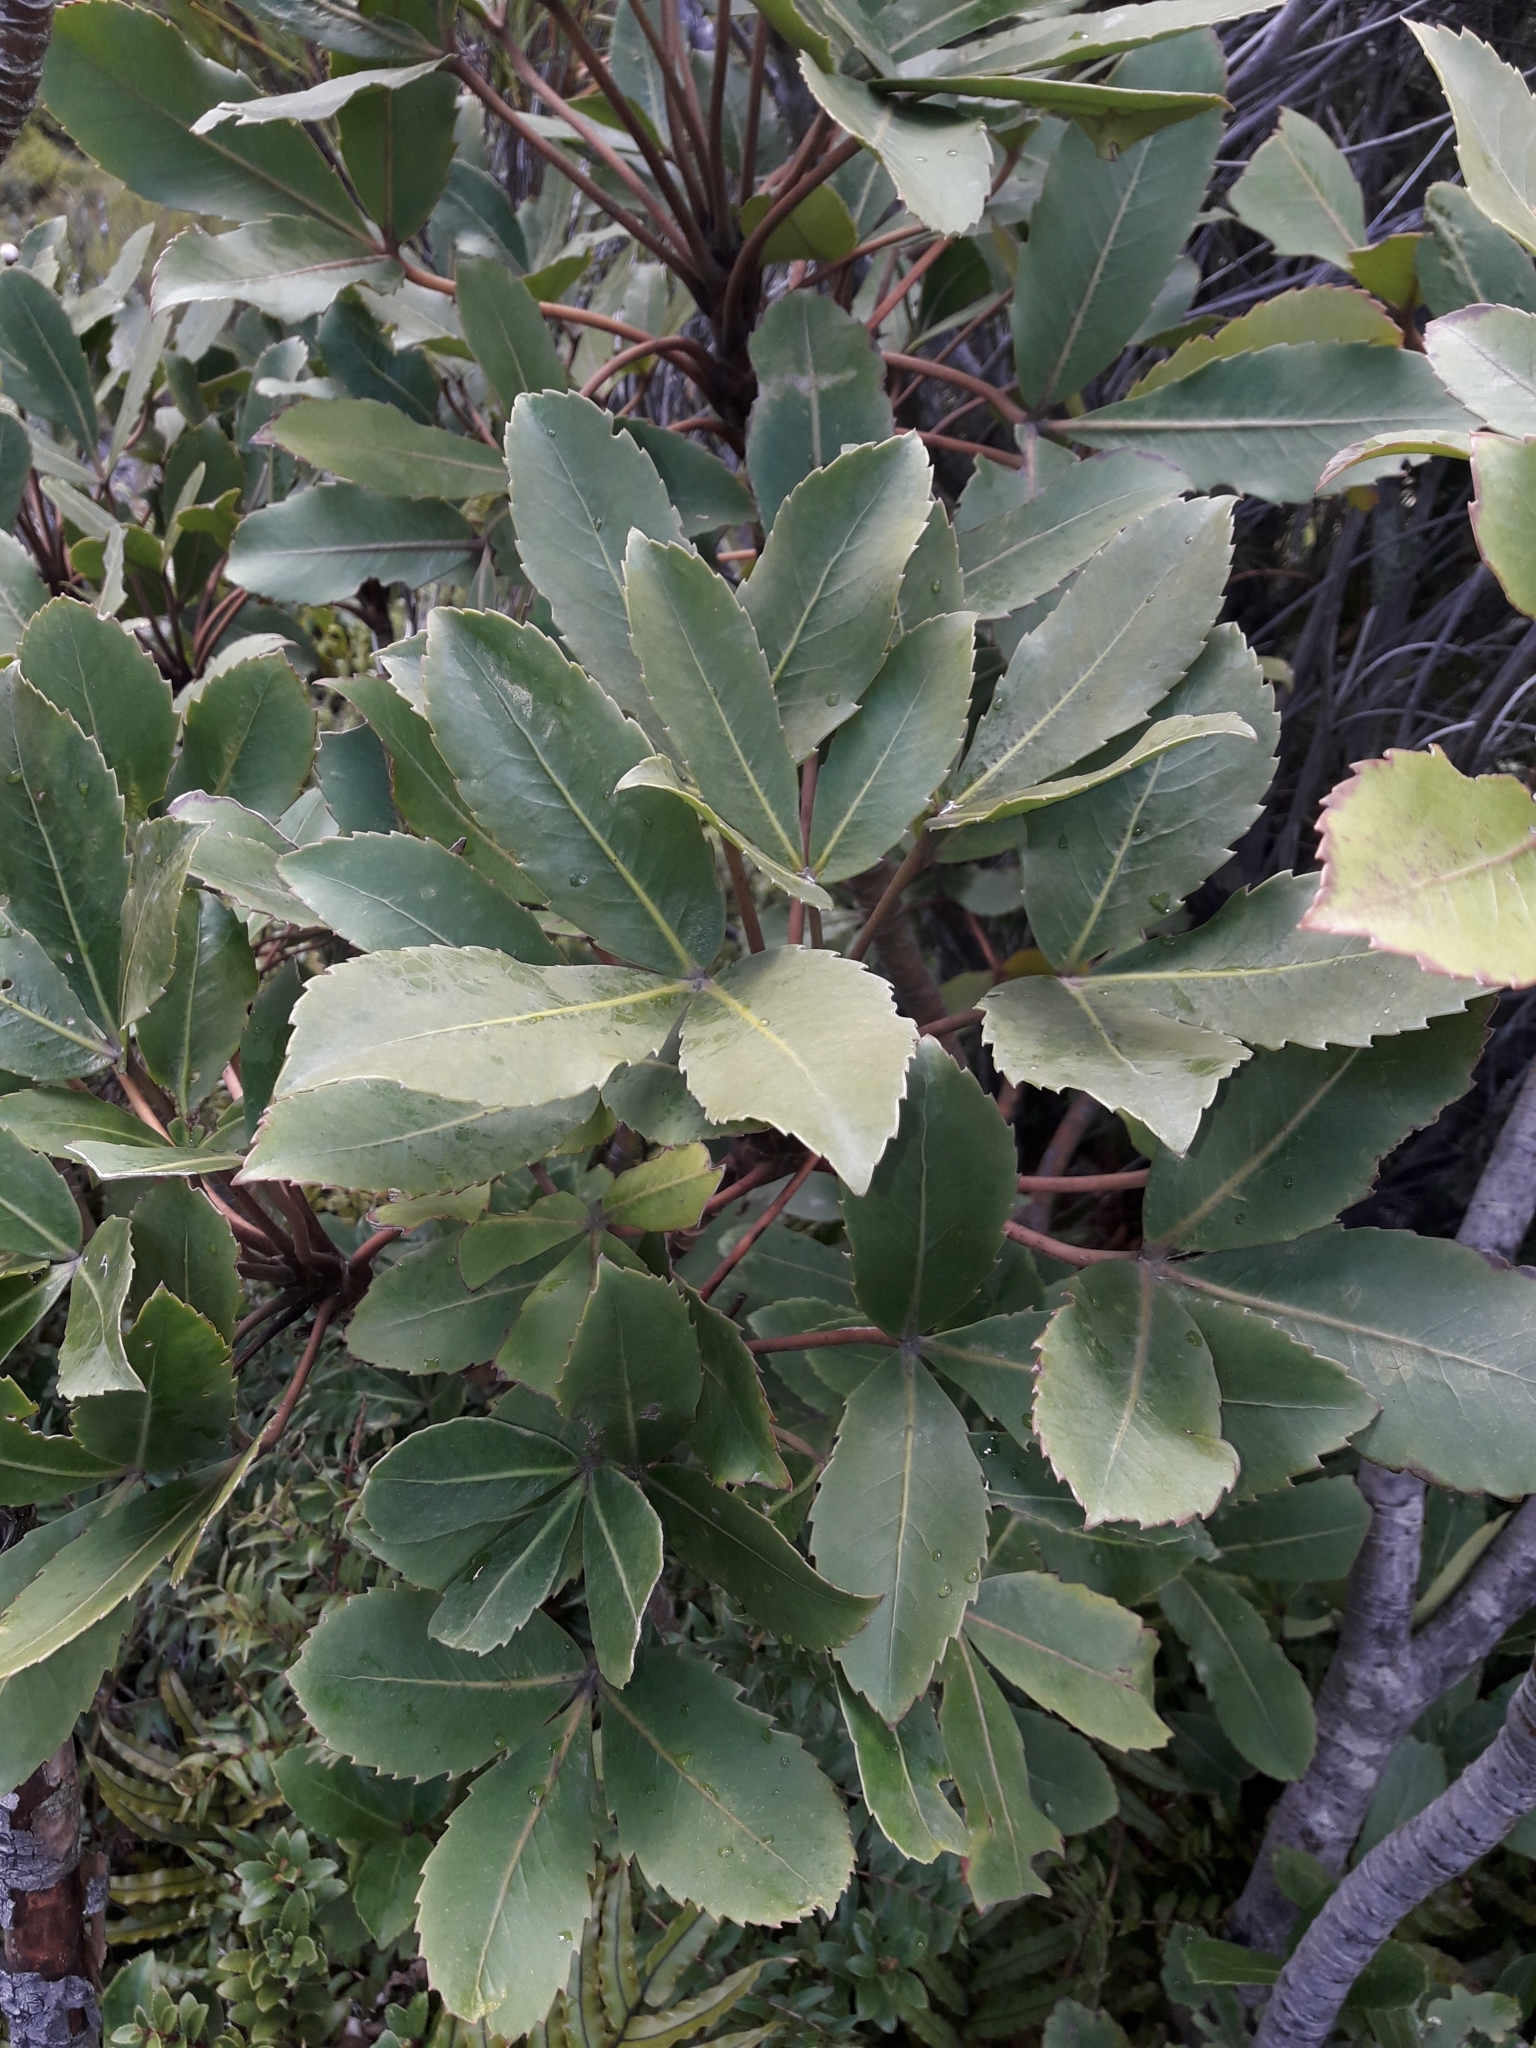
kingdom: Plantae
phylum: Tracheophyta
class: Magnoliopsida
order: Apiales
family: Araliaceae
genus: Neopanax
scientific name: Neopanax colensoi
